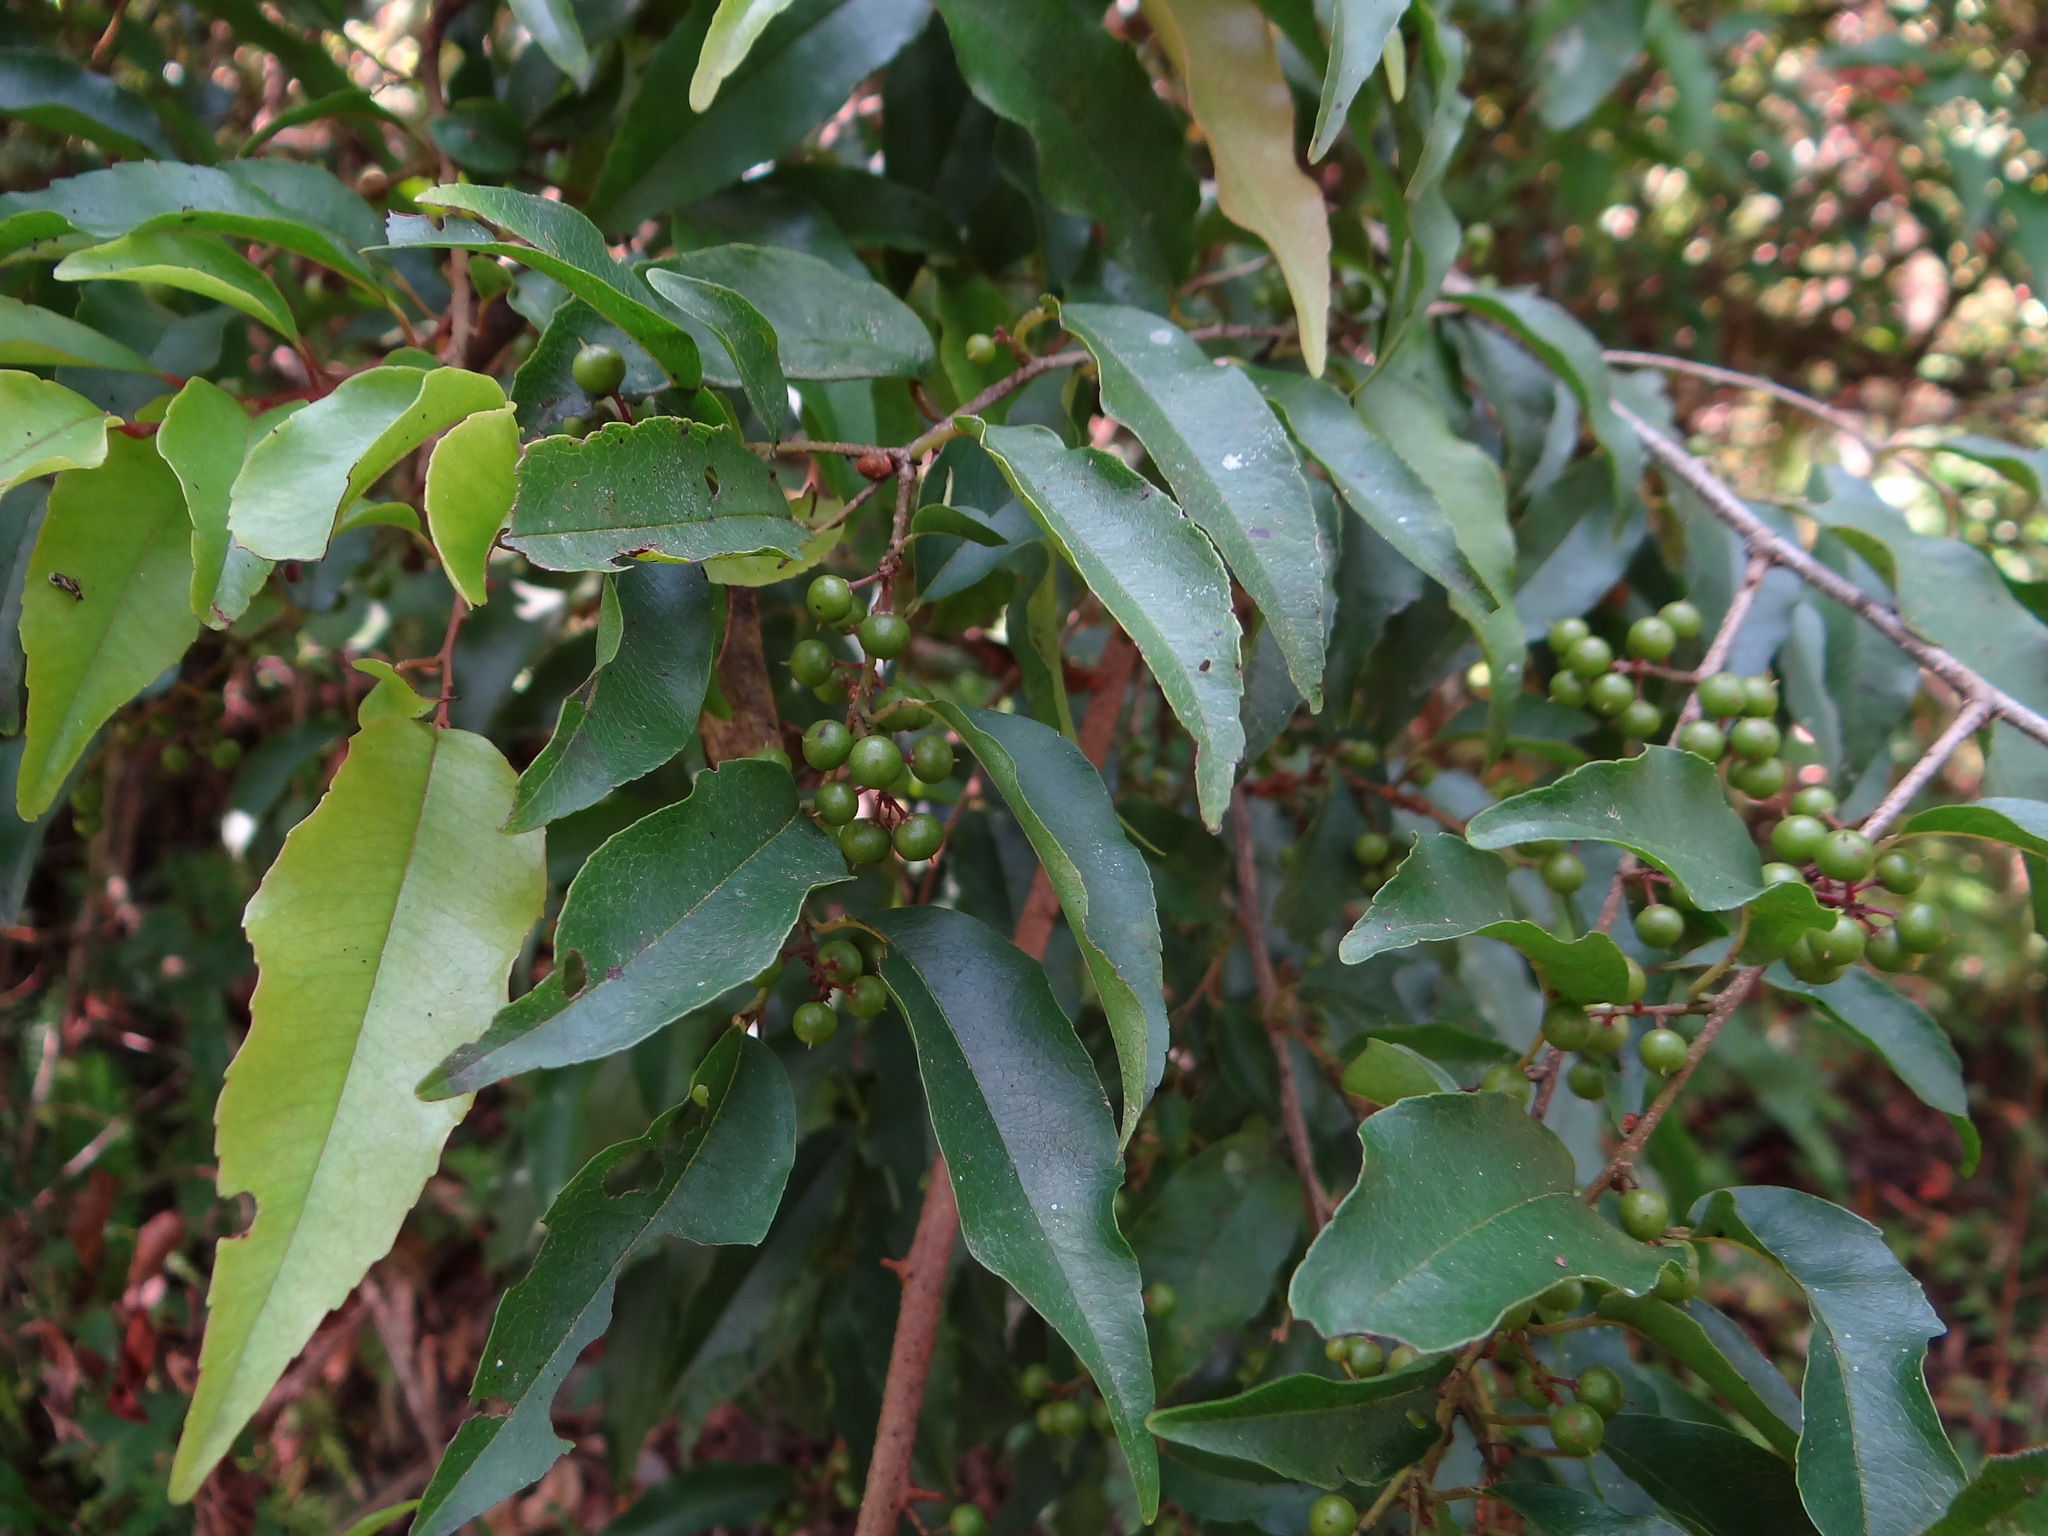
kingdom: Plantae
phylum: Tracheophyta
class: Magnoliopsida
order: Ericales
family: Primulaceae
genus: Embelia
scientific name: Embelia vestita
